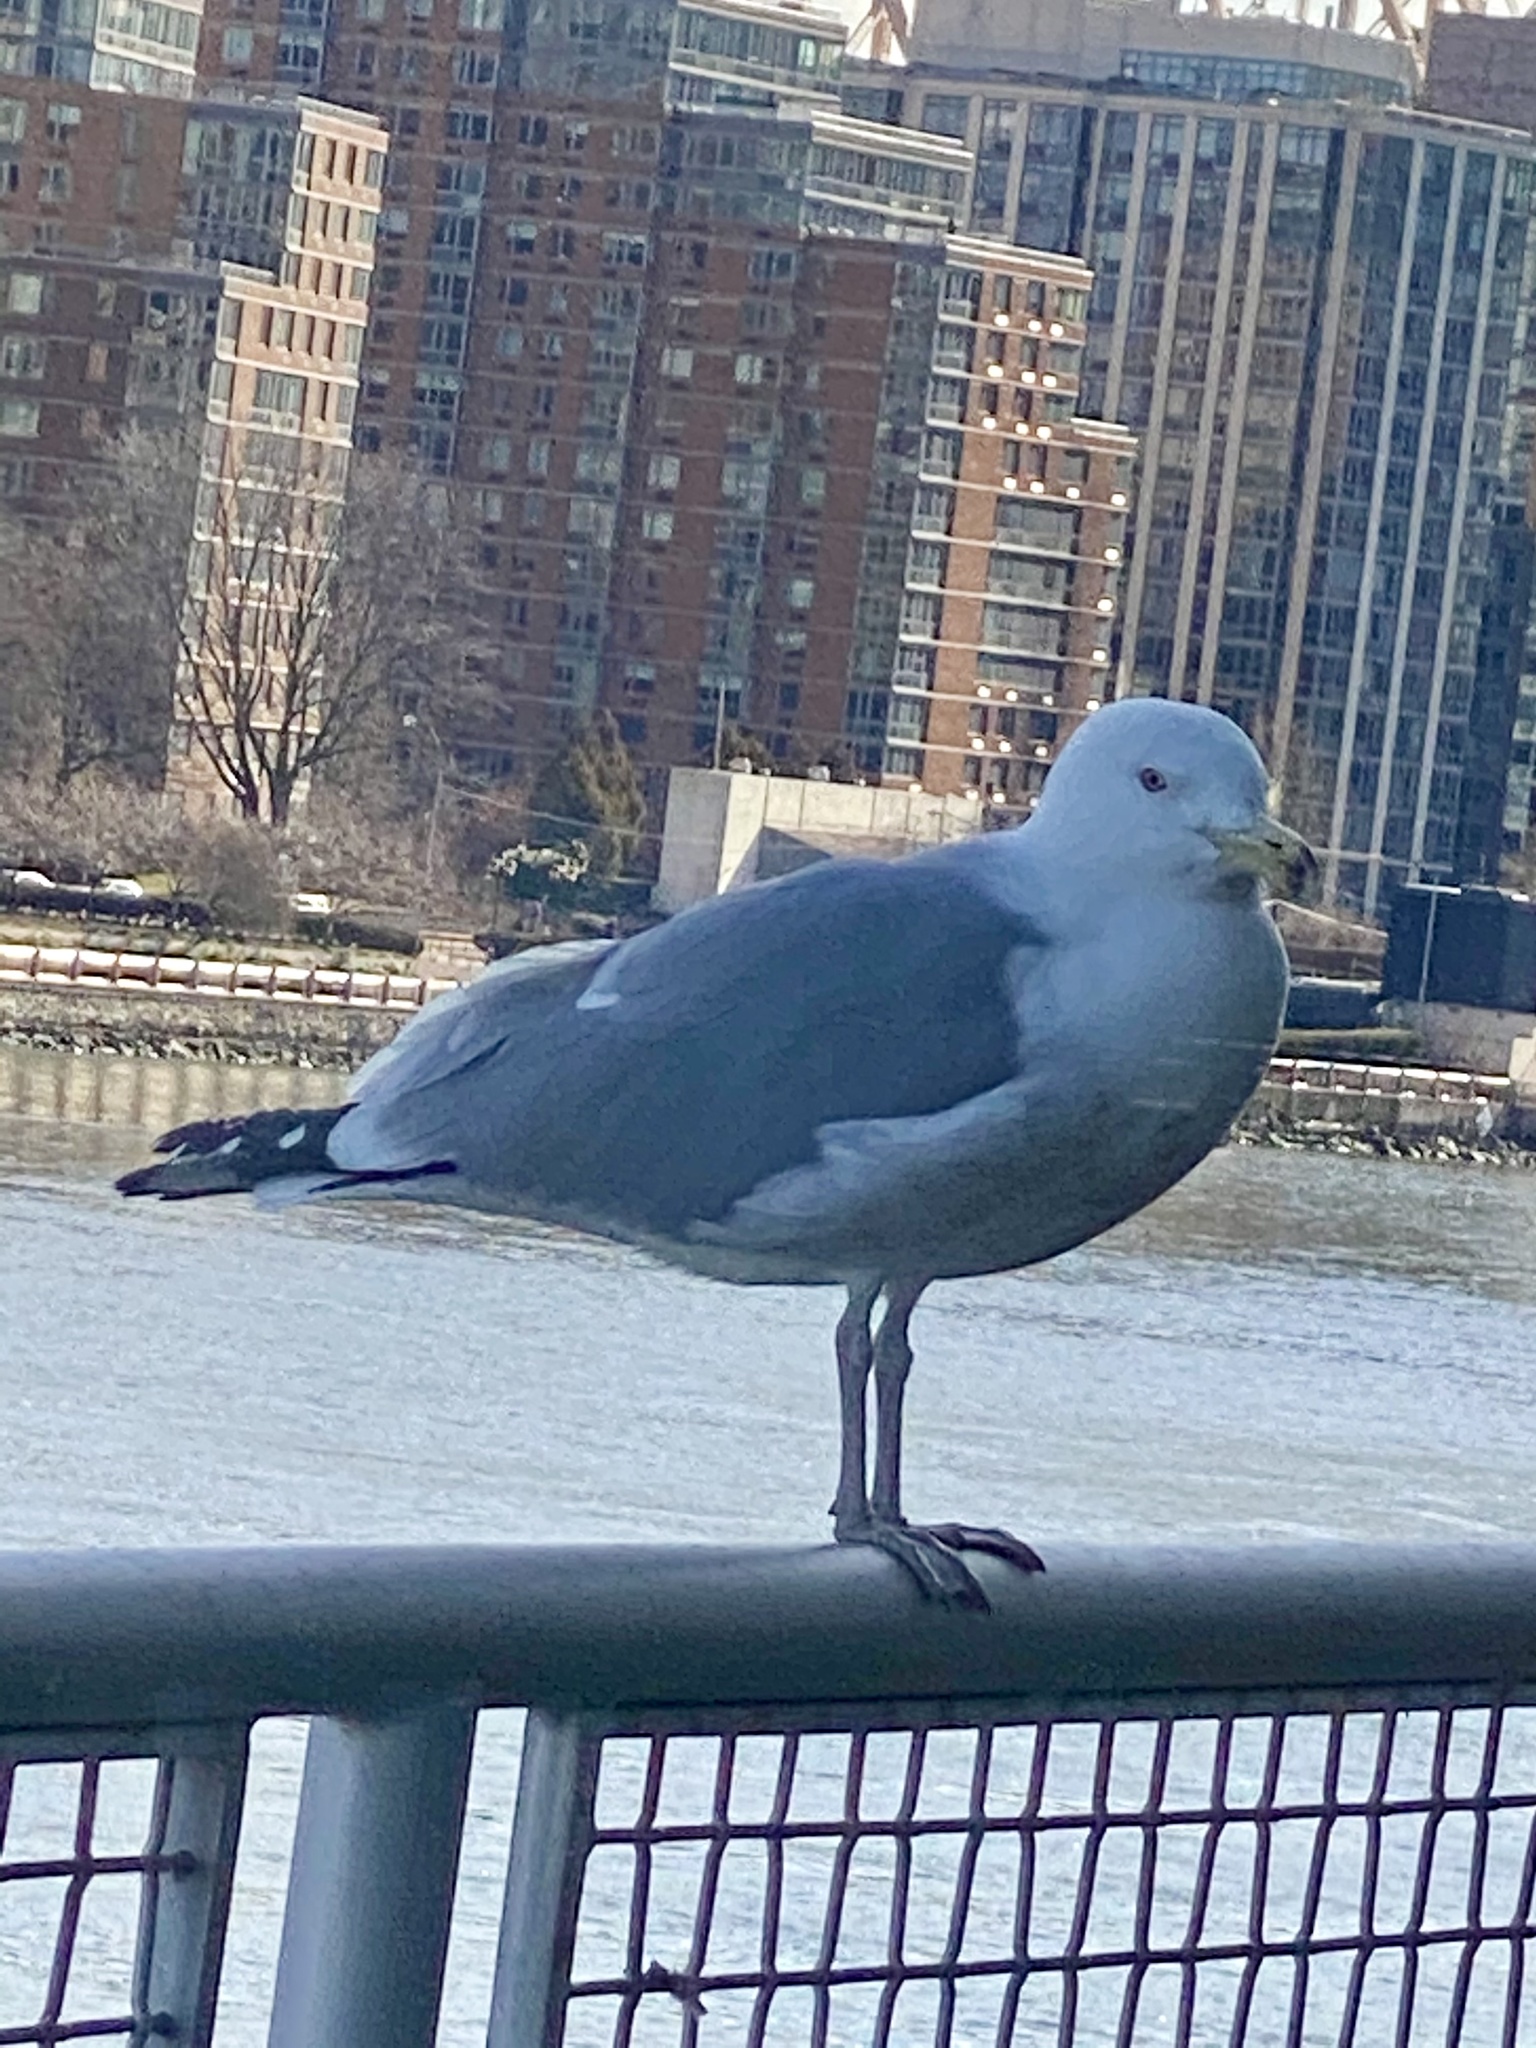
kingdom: Animalia
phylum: Chordata
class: Aves
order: Charadriiformes
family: Laridae
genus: Larus
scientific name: Larus argentatus
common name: Herring gull
